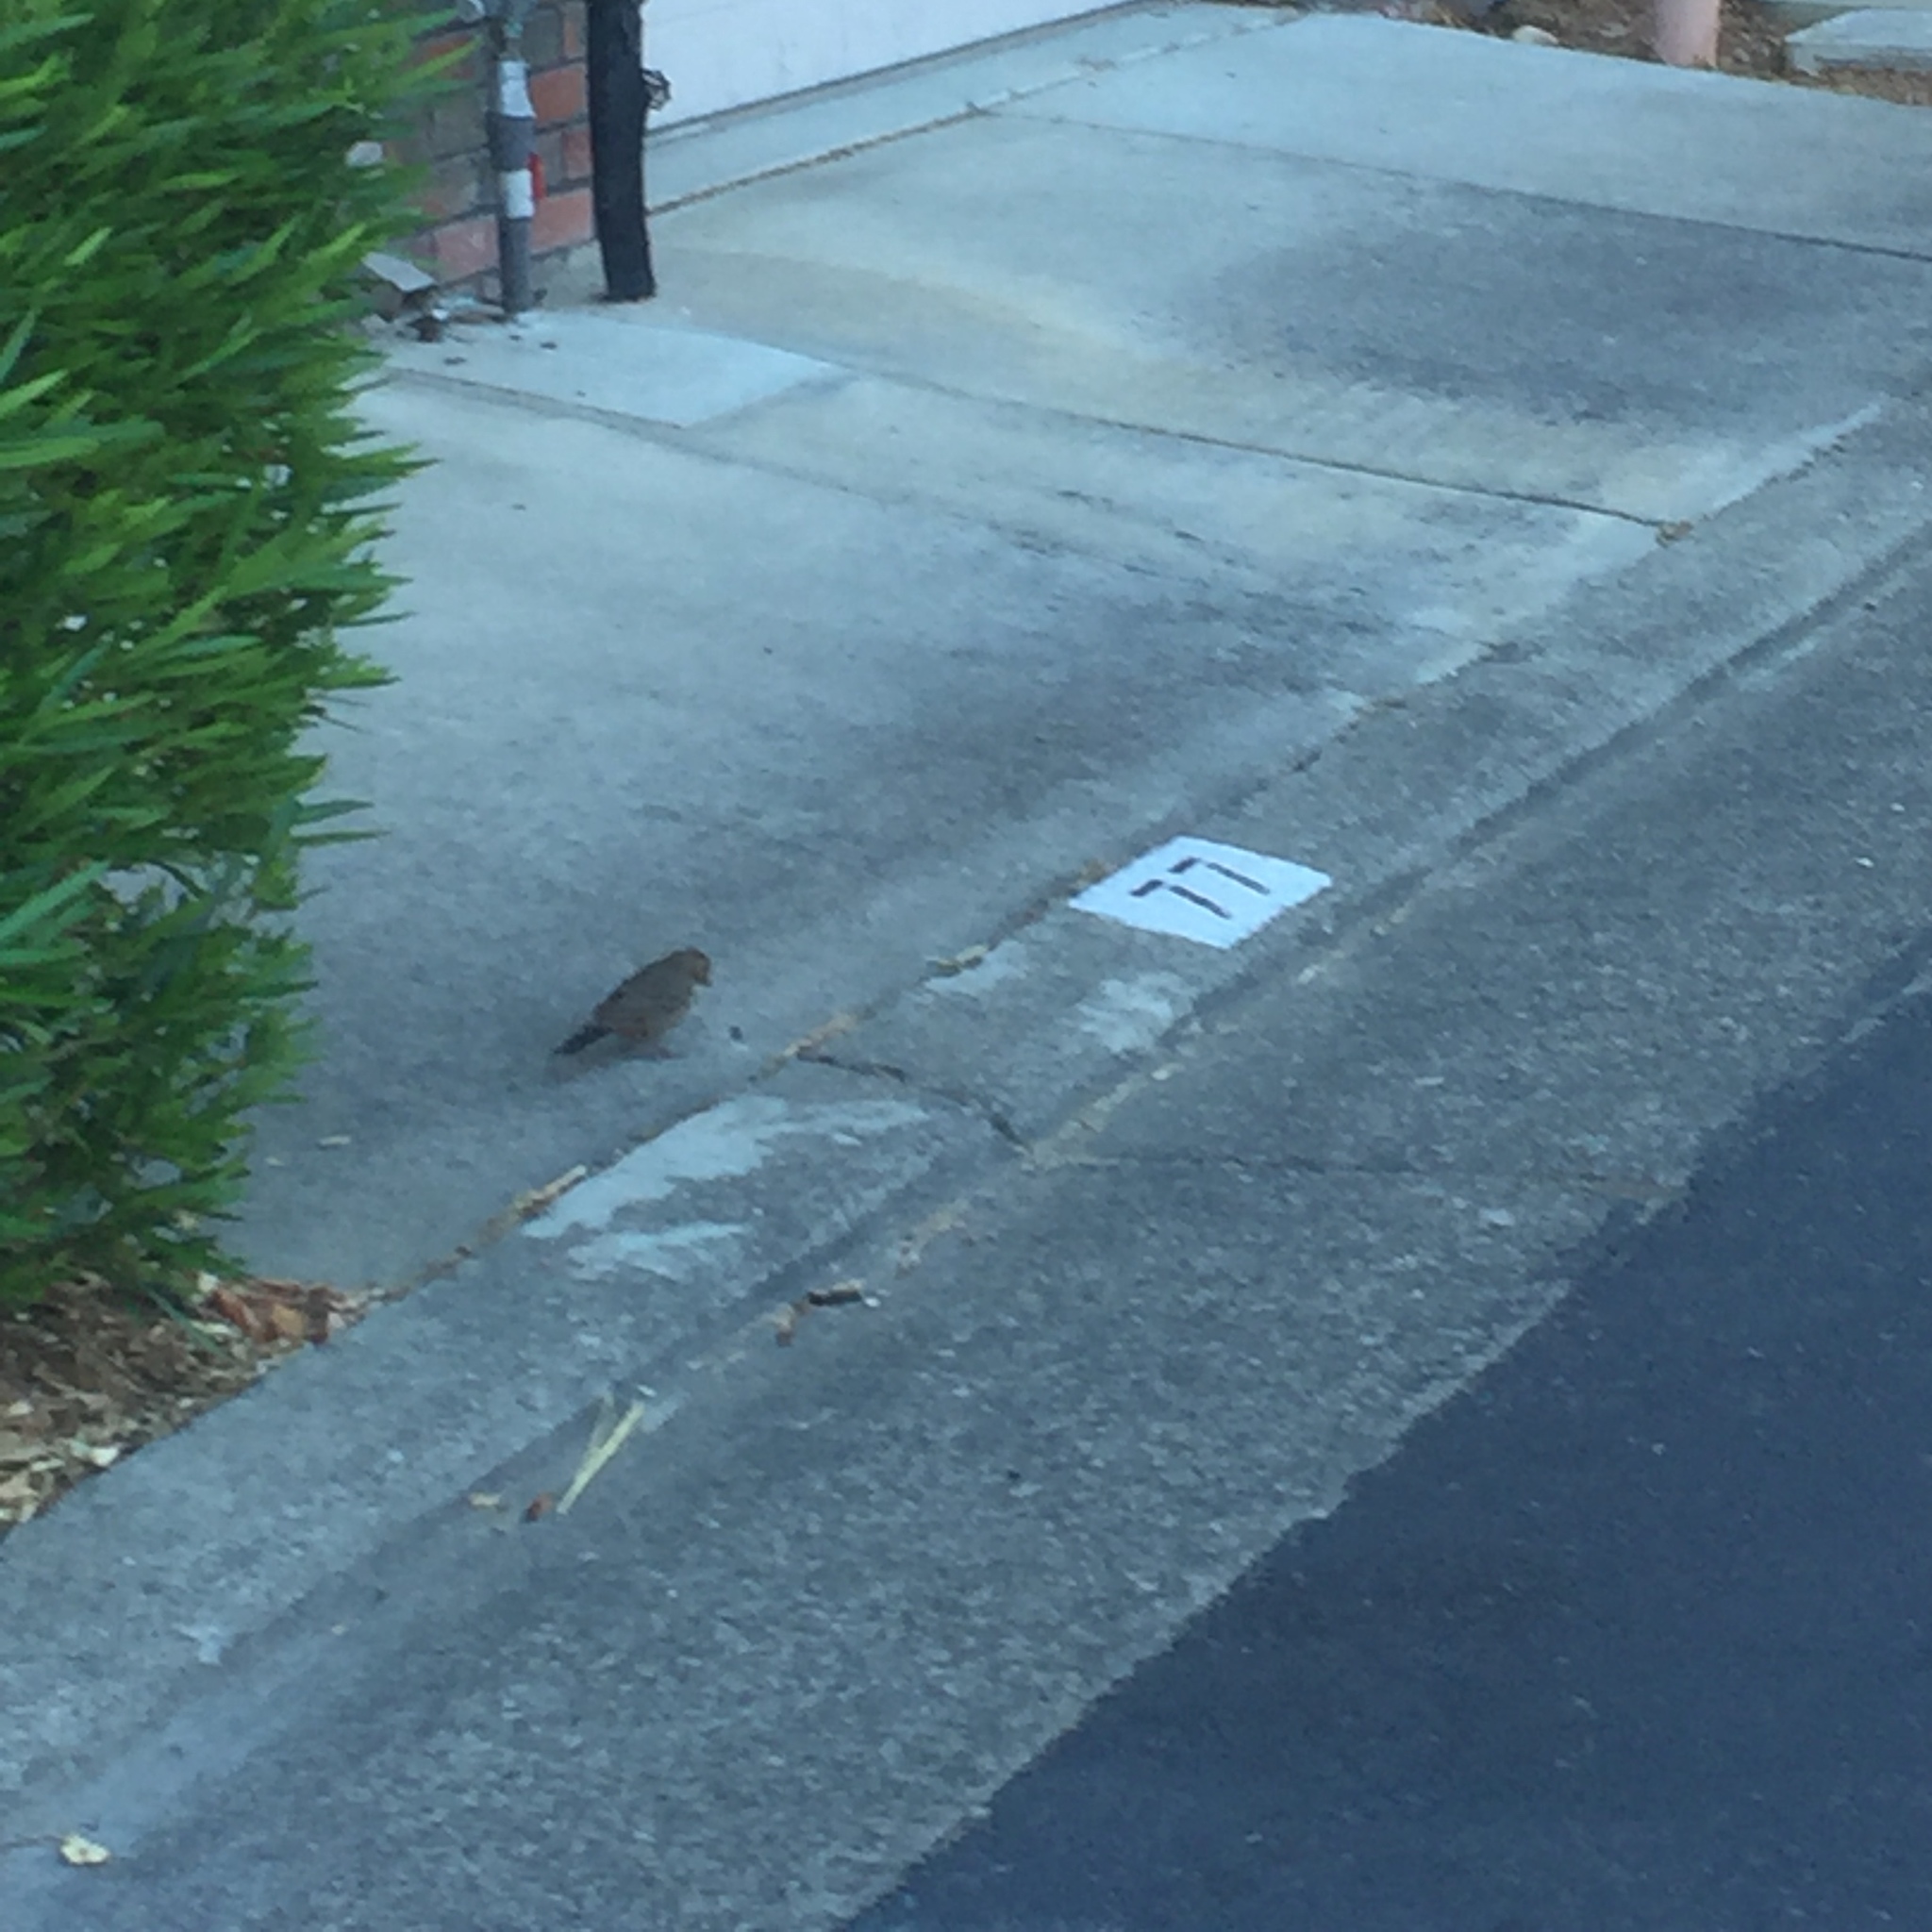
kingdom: Animalia
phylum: Chordata
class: Aves
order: Passeriformes
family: Passerellidae
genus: Melozone
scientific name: Melozone crissalis
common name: California towhee
